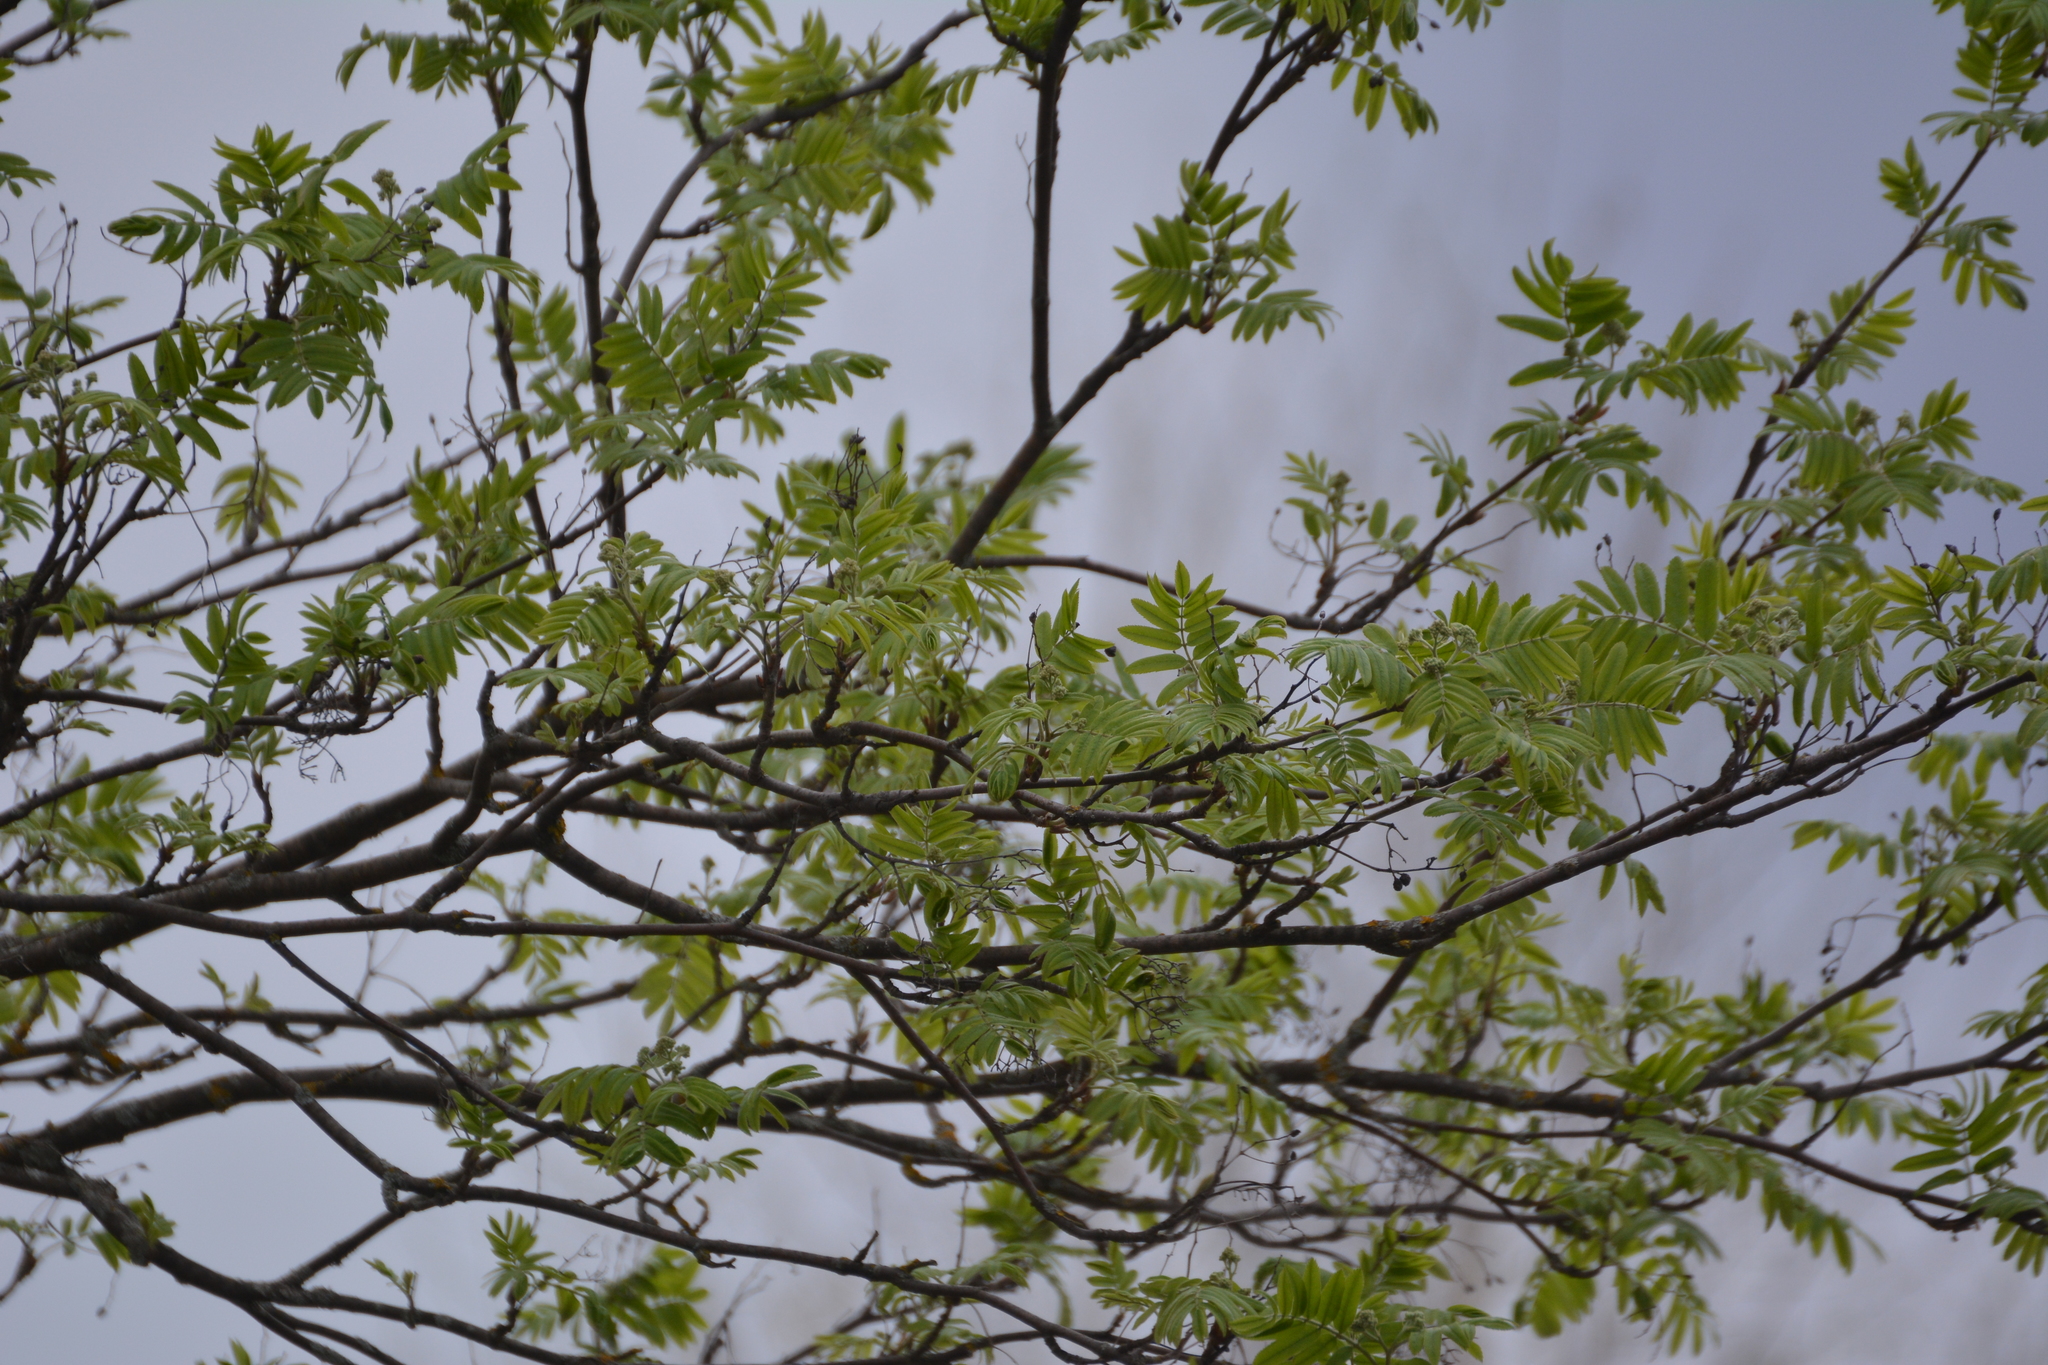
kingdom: Plantae
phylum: Tracheophyta
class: Magnoliopsida
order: Rosales
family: Rosaceae
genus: Sorbus
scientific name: Sorbus aucuparia
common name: Rowan
